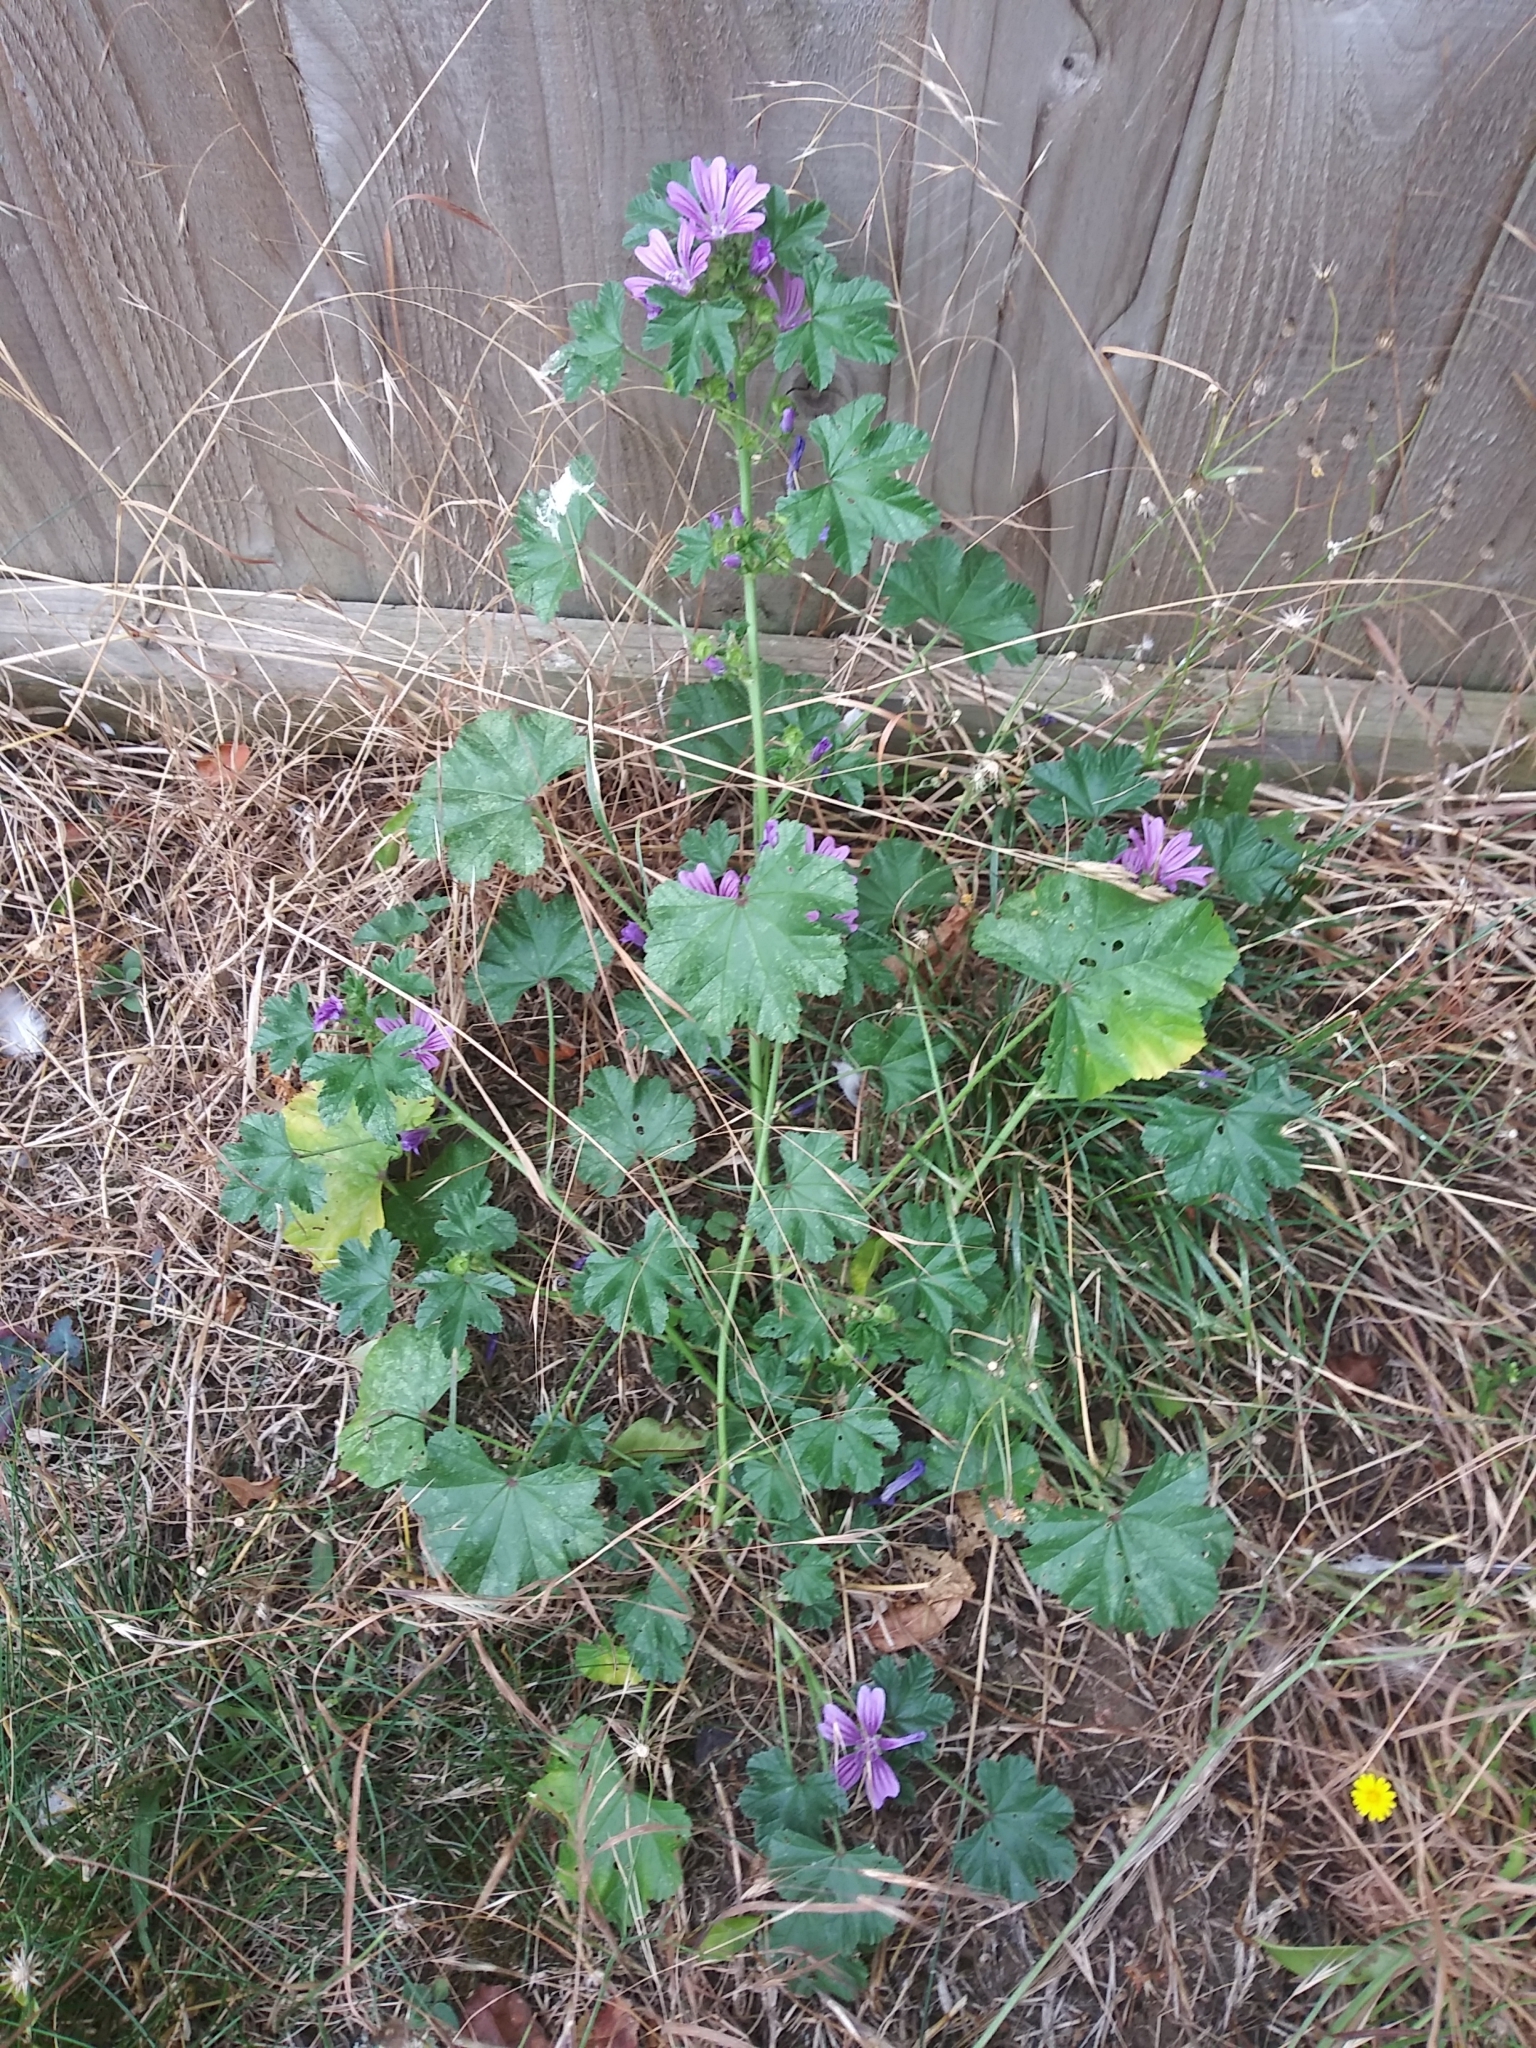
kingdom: Plantae
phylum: Tracheophyta
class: Magnoliopsida
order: Malvales
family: Malvaceae
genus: Malva
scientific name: Malva sylvestris
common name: Common mallow
